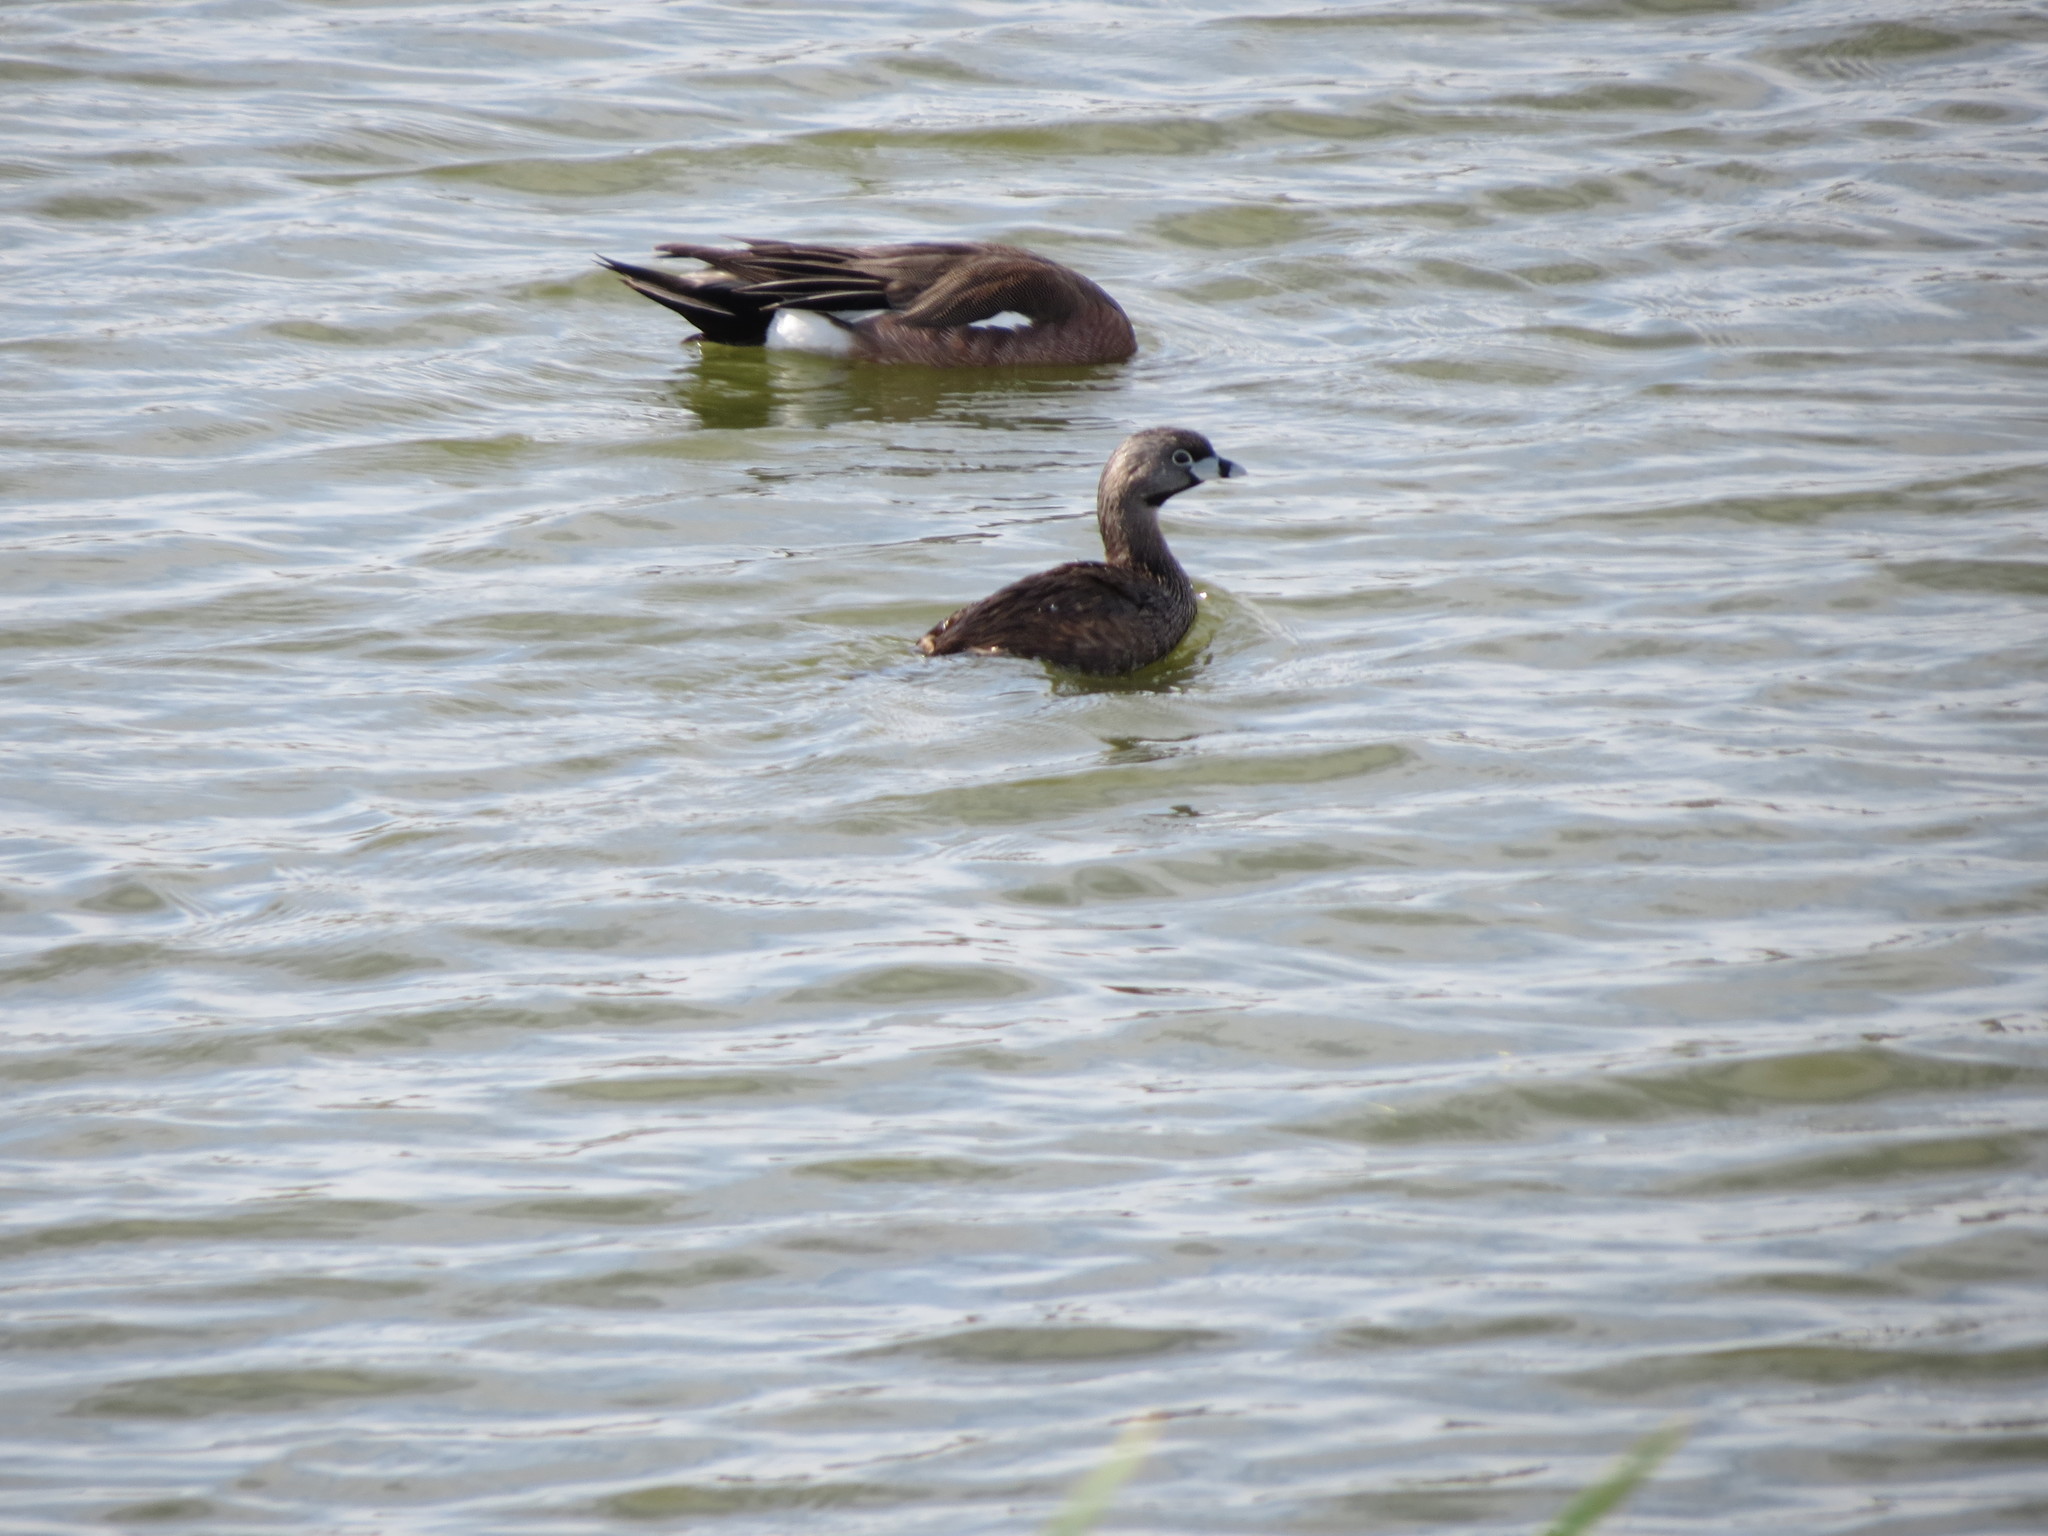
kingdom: Animalia
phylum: Chordata
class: Aves
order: Podicipediformes
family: Podicipedidae
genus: Podilymbus
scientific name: Podilymbus podiceps
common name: Pied-billed grebe
